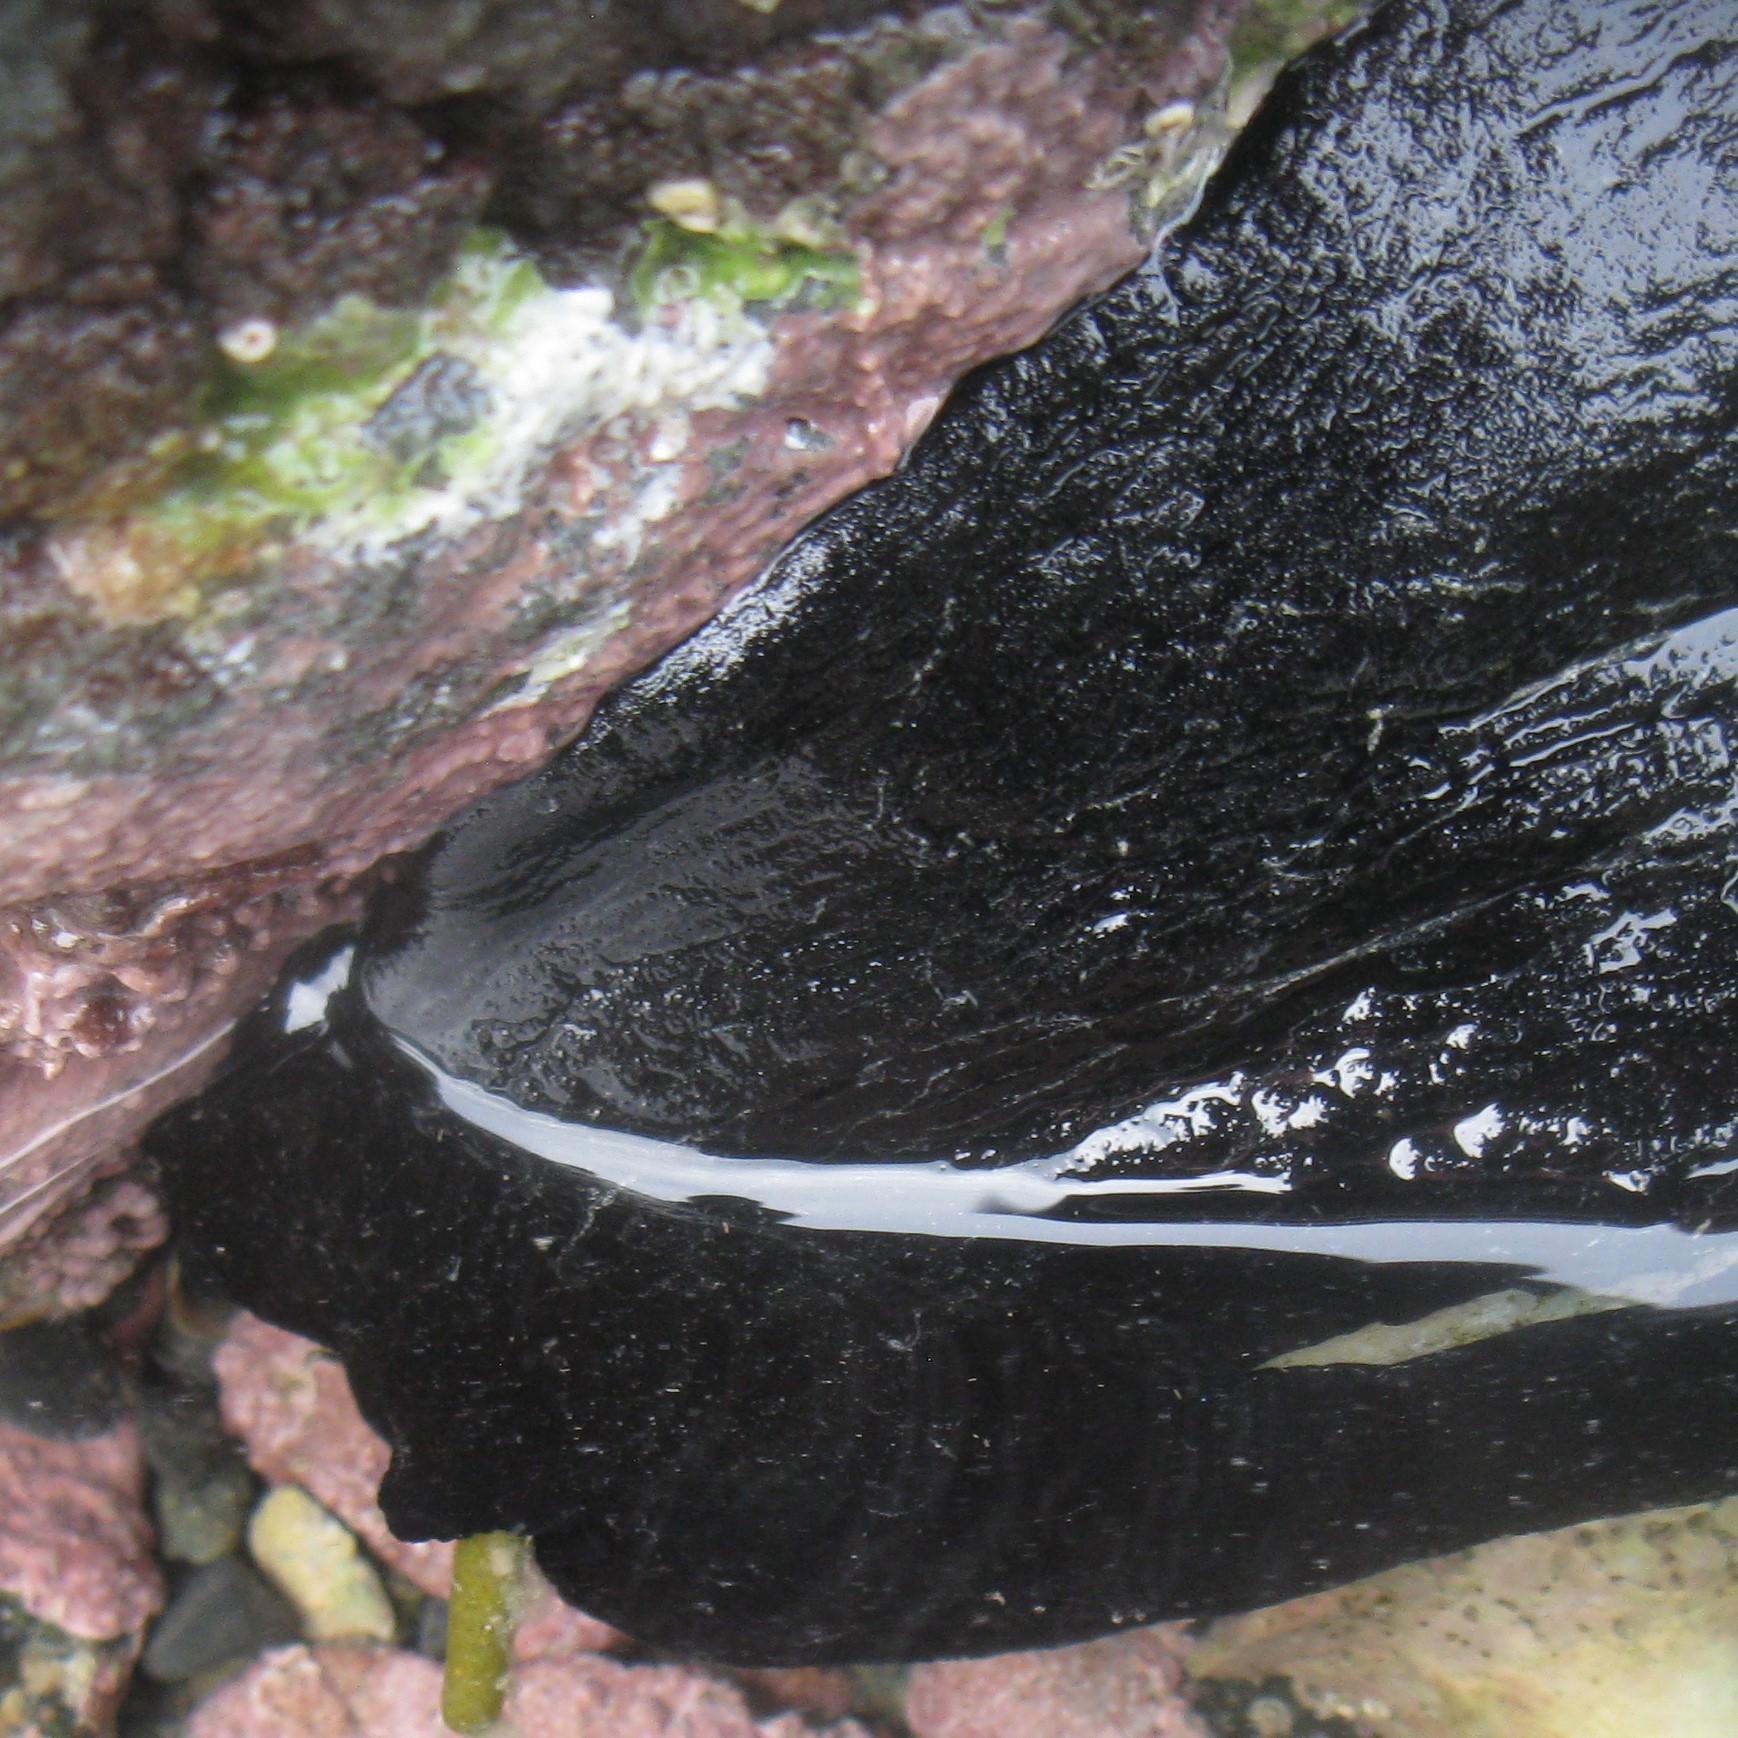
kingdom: Animalia
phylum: Mollusca
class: Gastropoda
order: Lepetellida
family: Fissurellidae
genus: Scutus
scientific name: Scutus breviculus
